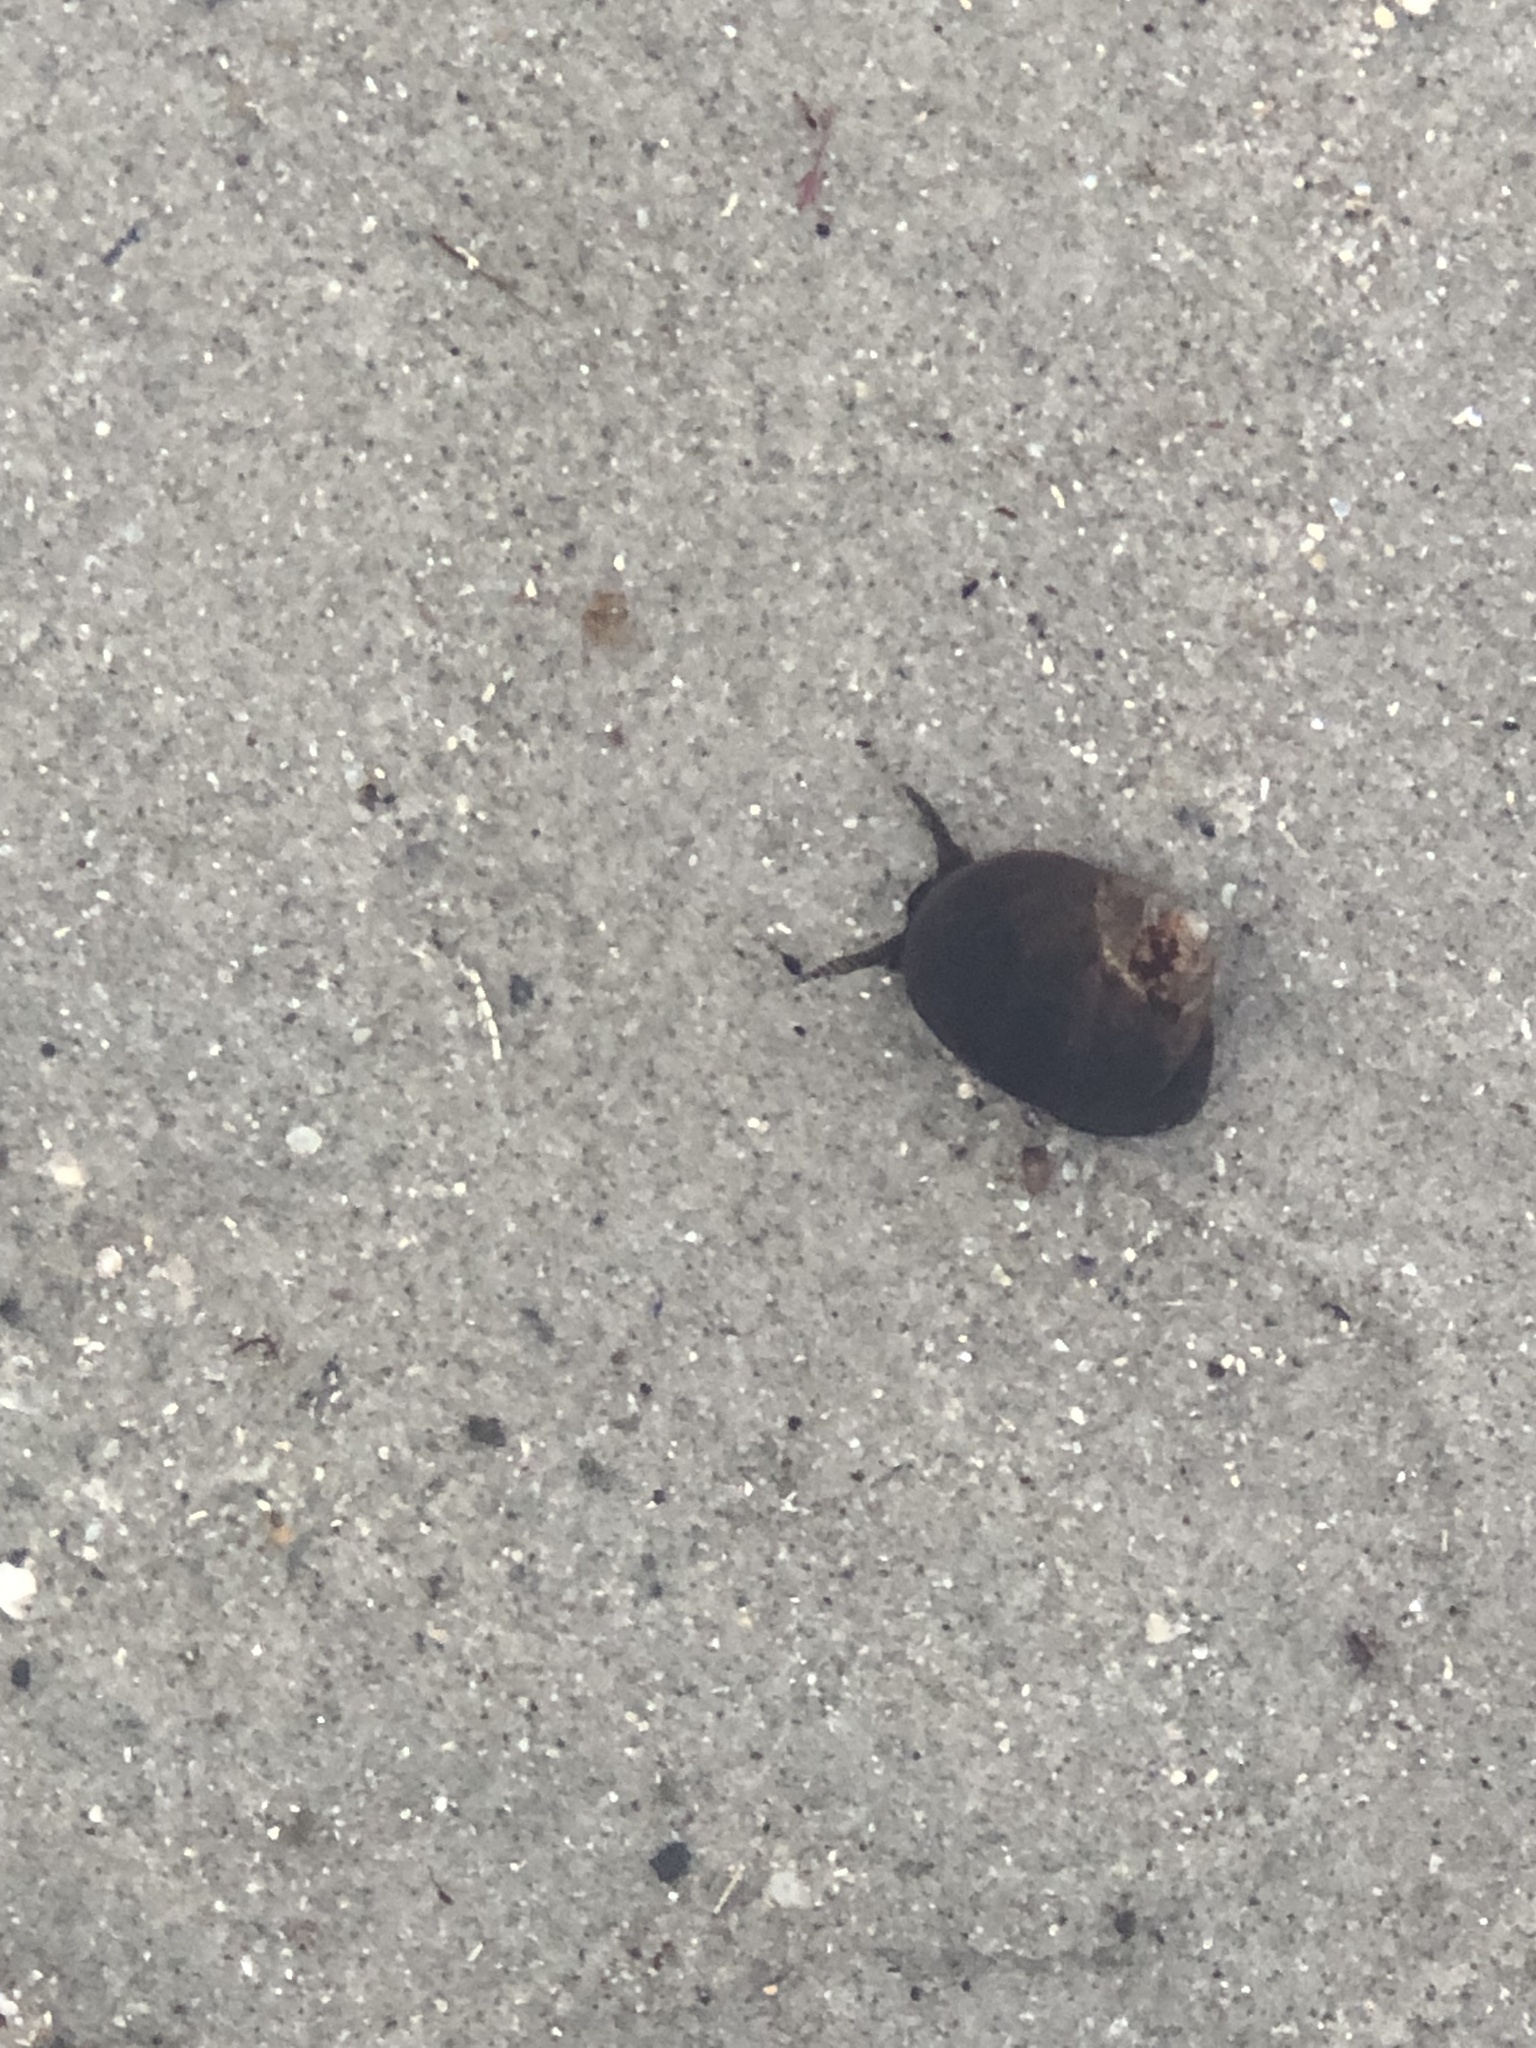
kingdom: Animalia
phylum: Mollusca
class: Gastropoda
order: Littorinimorpha
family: Littorinidae
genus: Littorina
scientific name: Littorina littorea
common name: Common periwinkle
